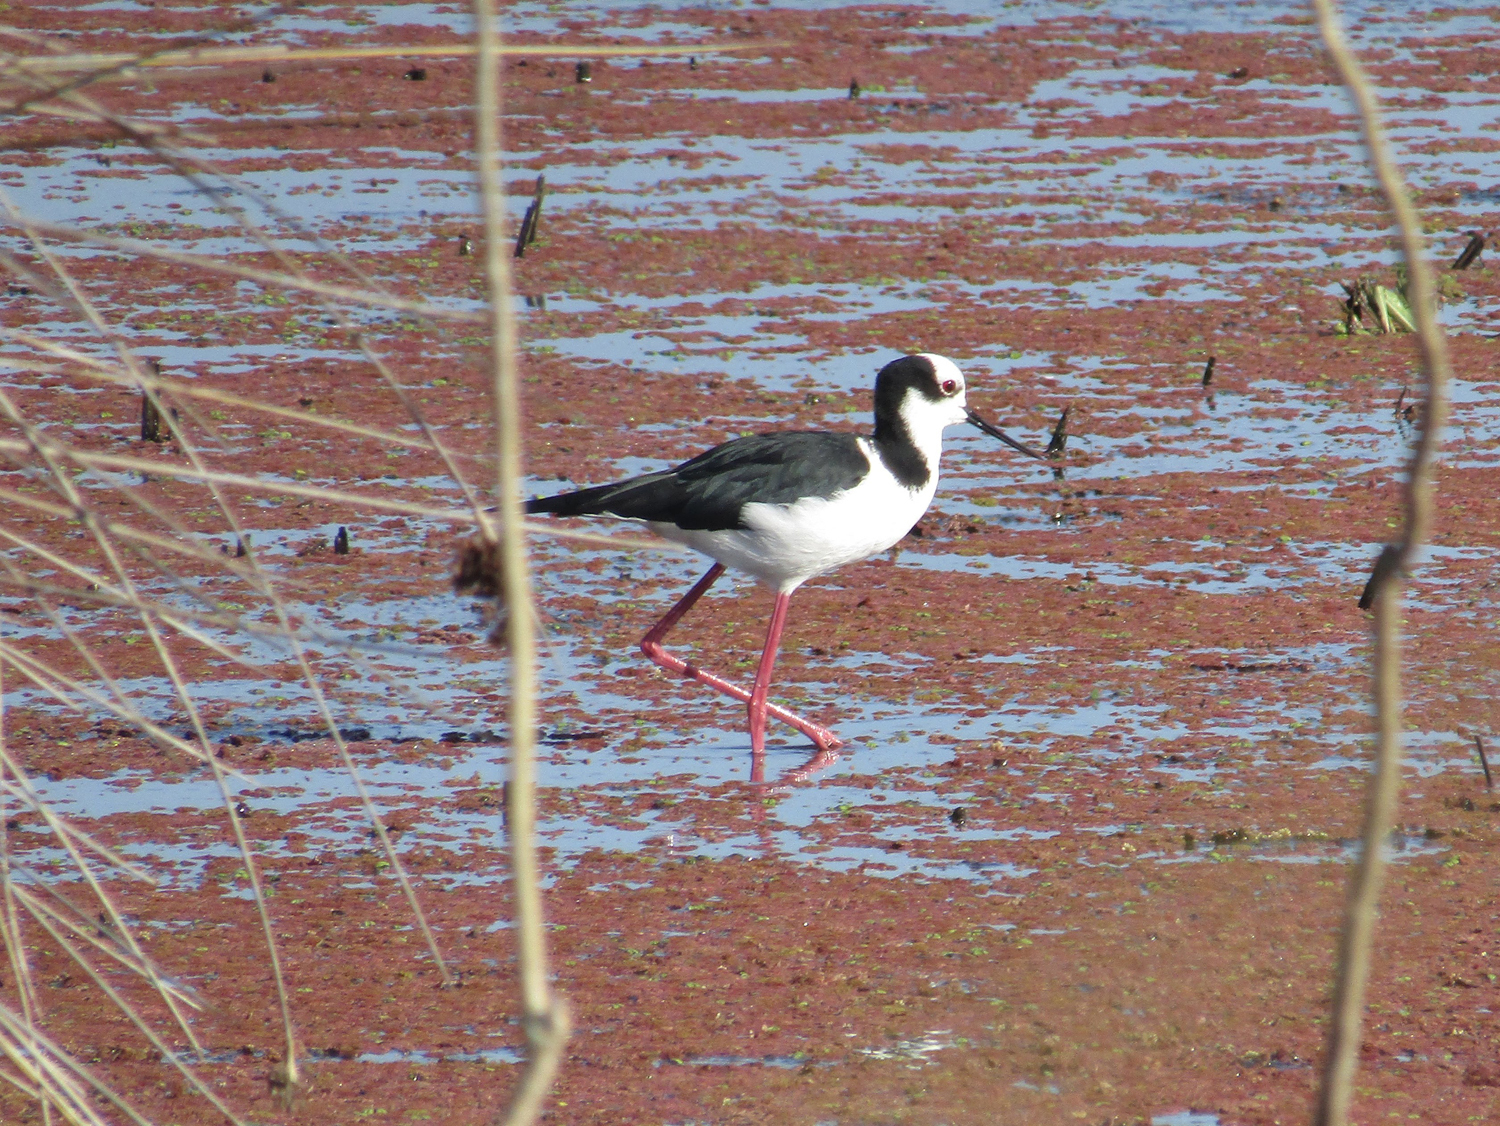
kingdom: Animalia
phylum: Chordata
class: Aves
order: Charadriiformes
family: Recurvirostridae
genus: Himantopus
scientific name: Himantopus mexicanus
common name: Black-necked stilt
